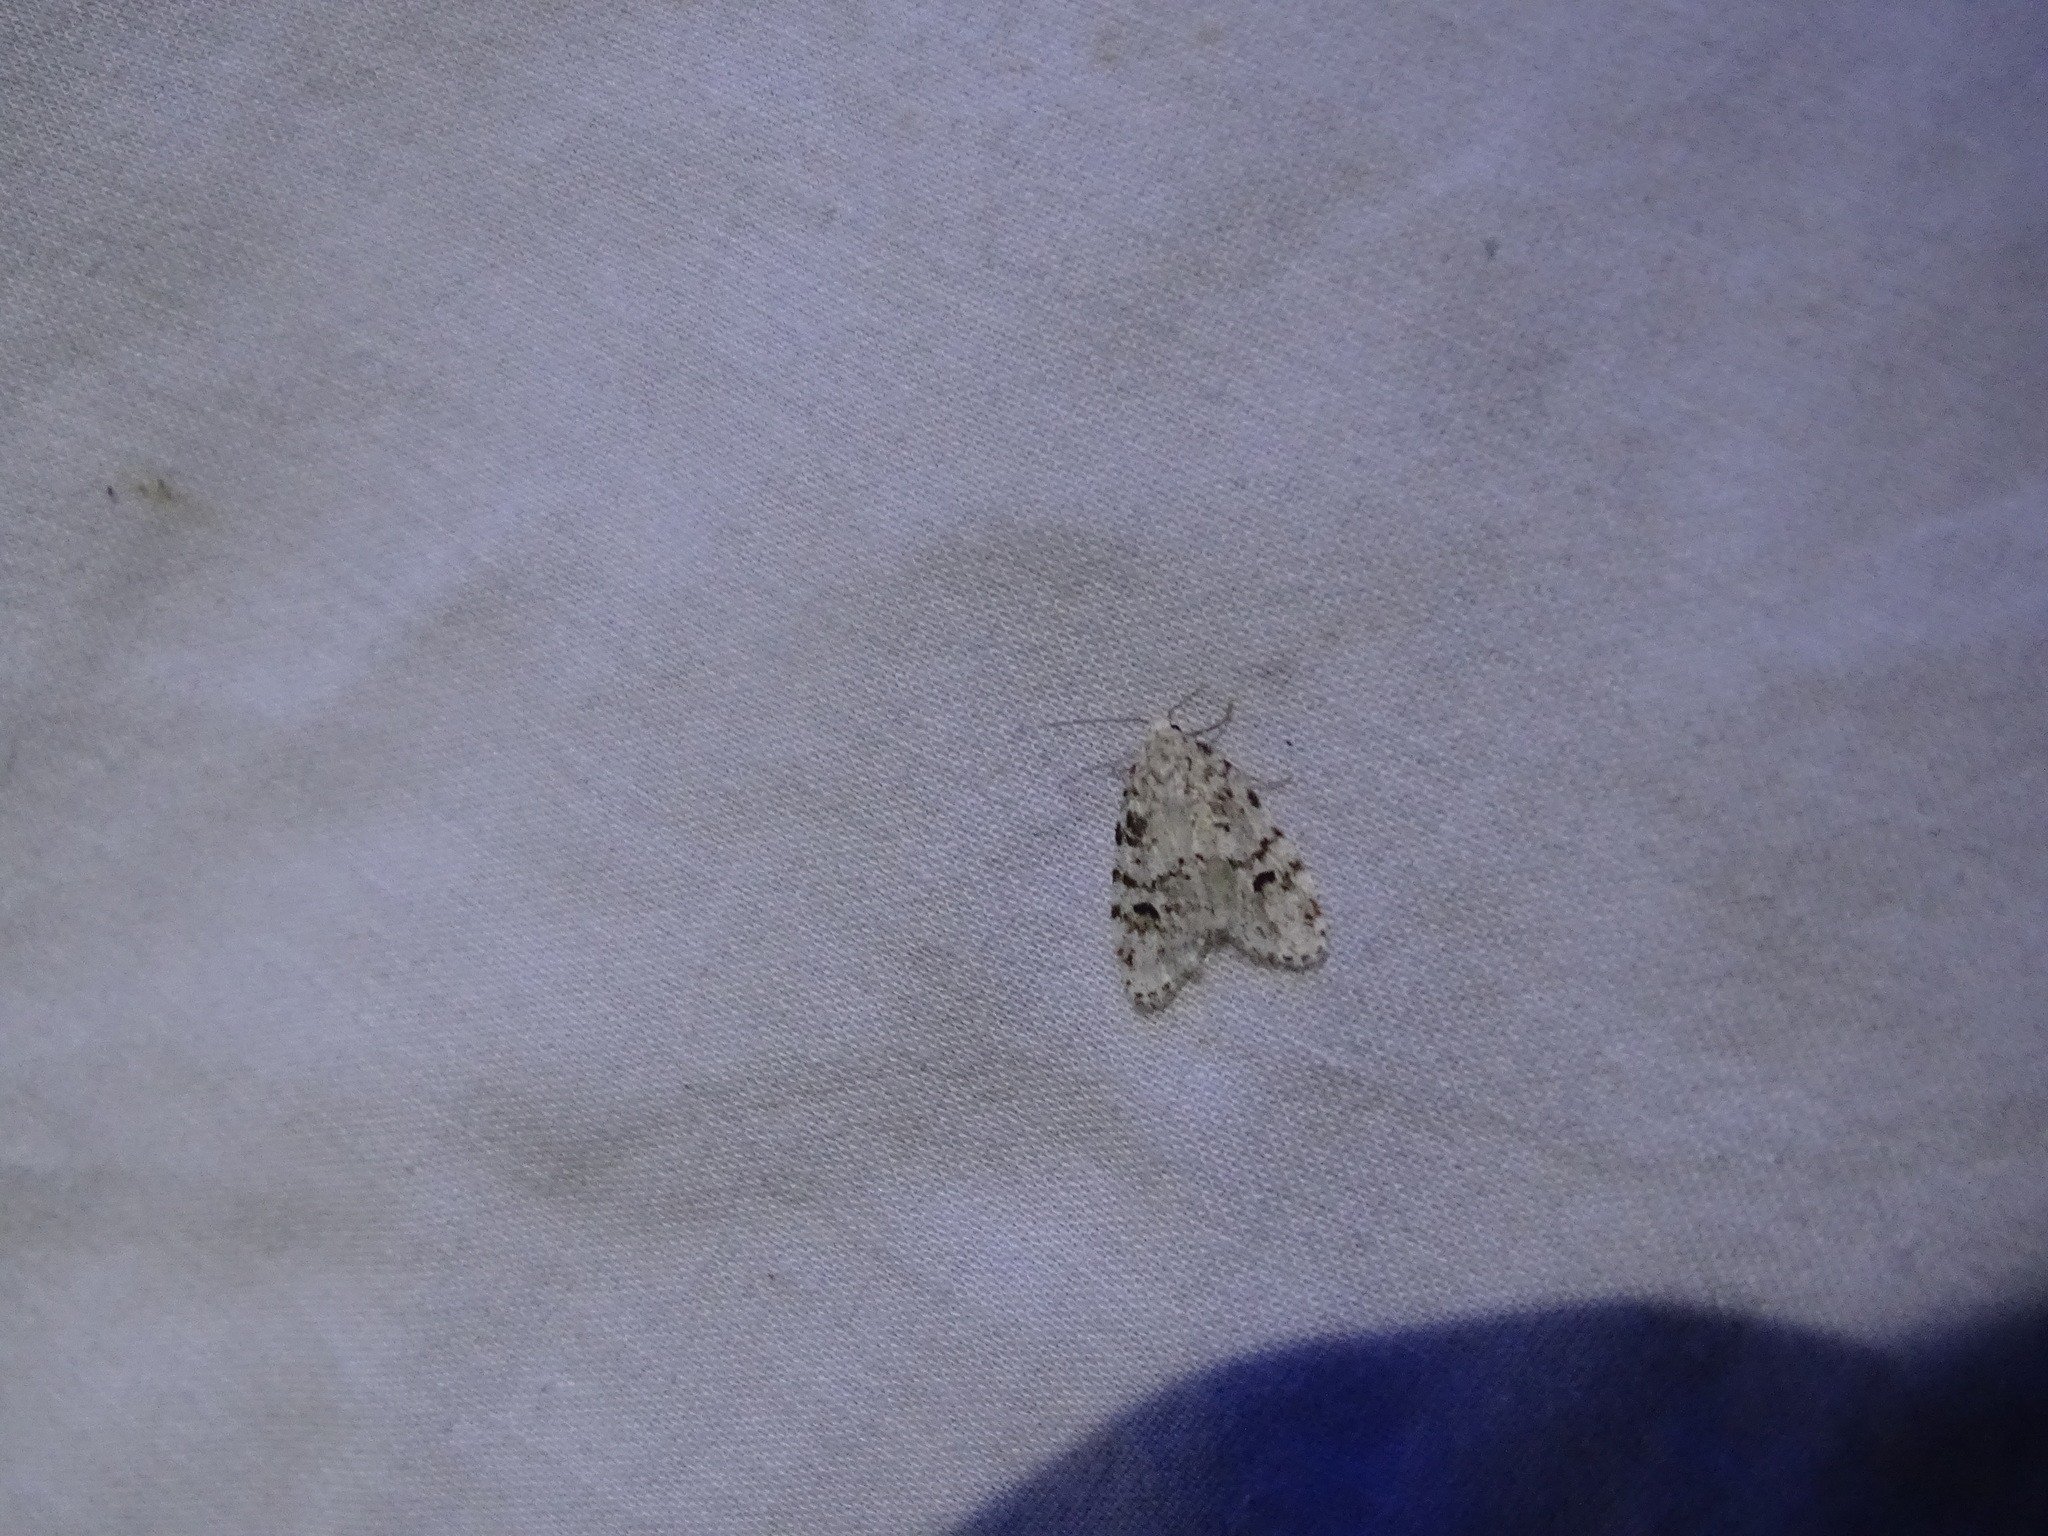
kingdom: Animalia
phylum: Arthropoda
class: Insecta
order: Lepidoptera
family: Erebidae
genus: Clemensia
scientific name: Clemensia ochreata
